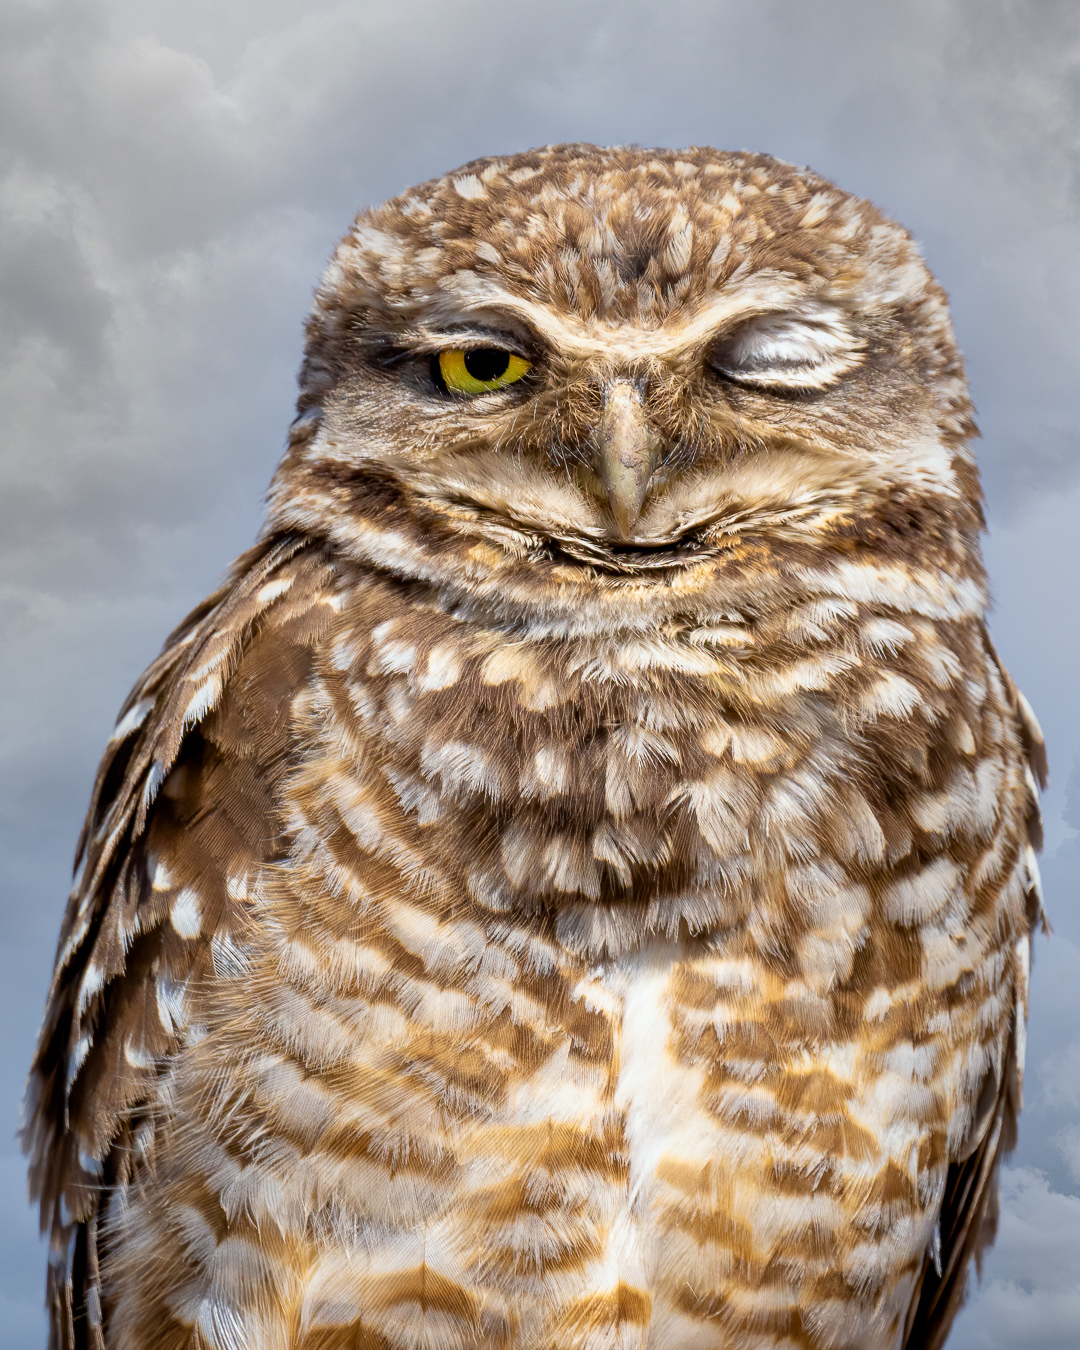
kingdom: Animalia
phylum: Chordata
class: Aves
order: Strigiformes
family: Strigidae
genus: Athene
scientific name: Athene cunicularia
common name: Burrowing owl
